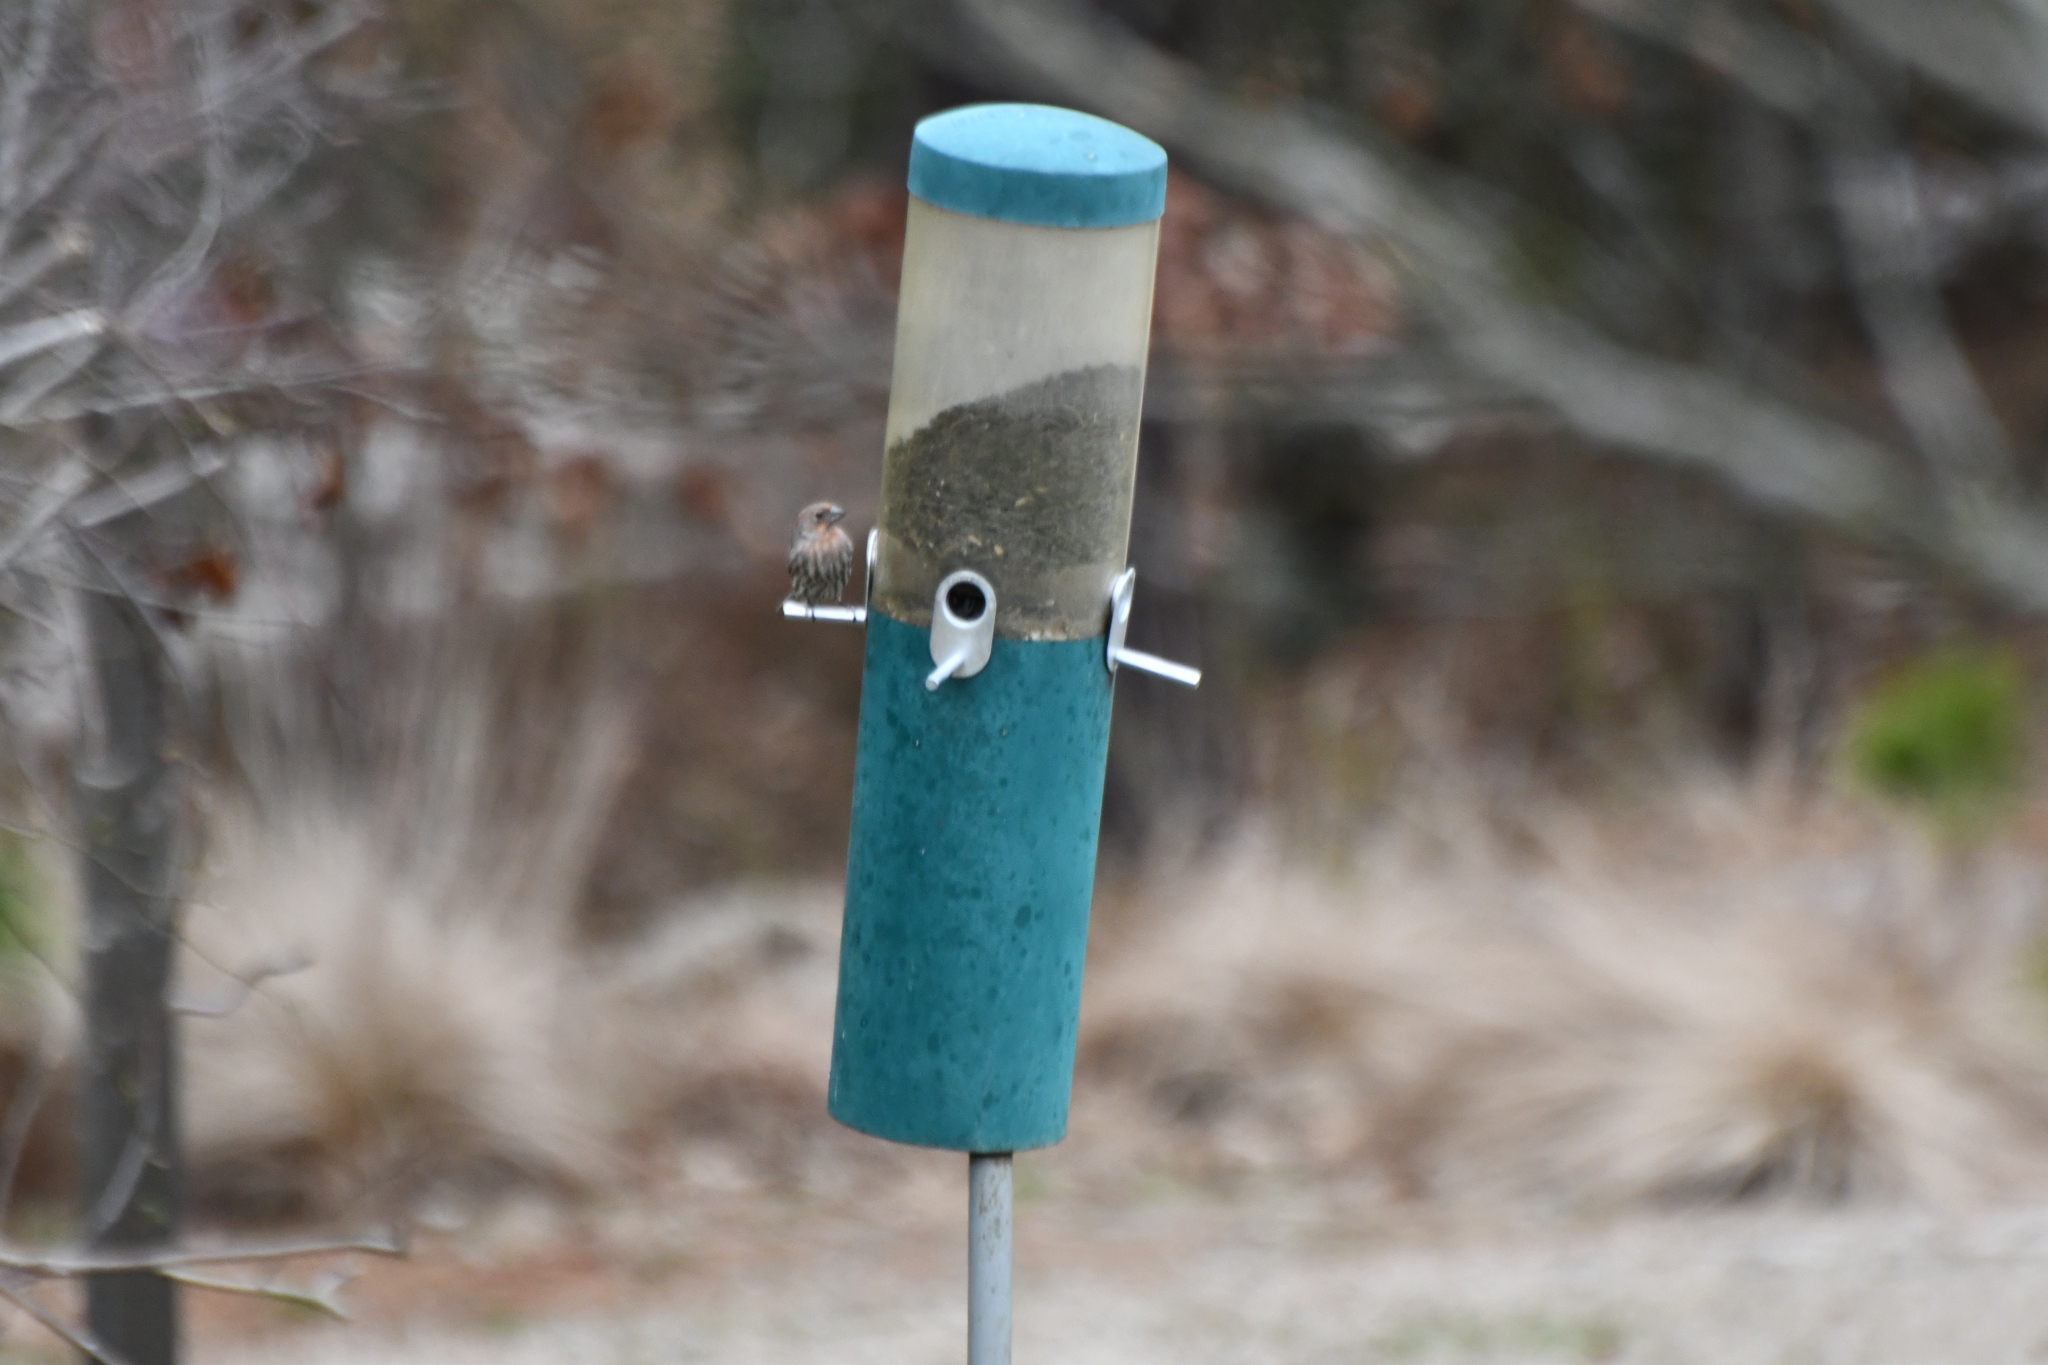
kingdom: Animalia
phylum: Chordata
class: Aves
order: Passeriformes
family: Fringillidae
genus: Haemorhous
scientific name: Haemorhous mexicanus
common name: House finch
